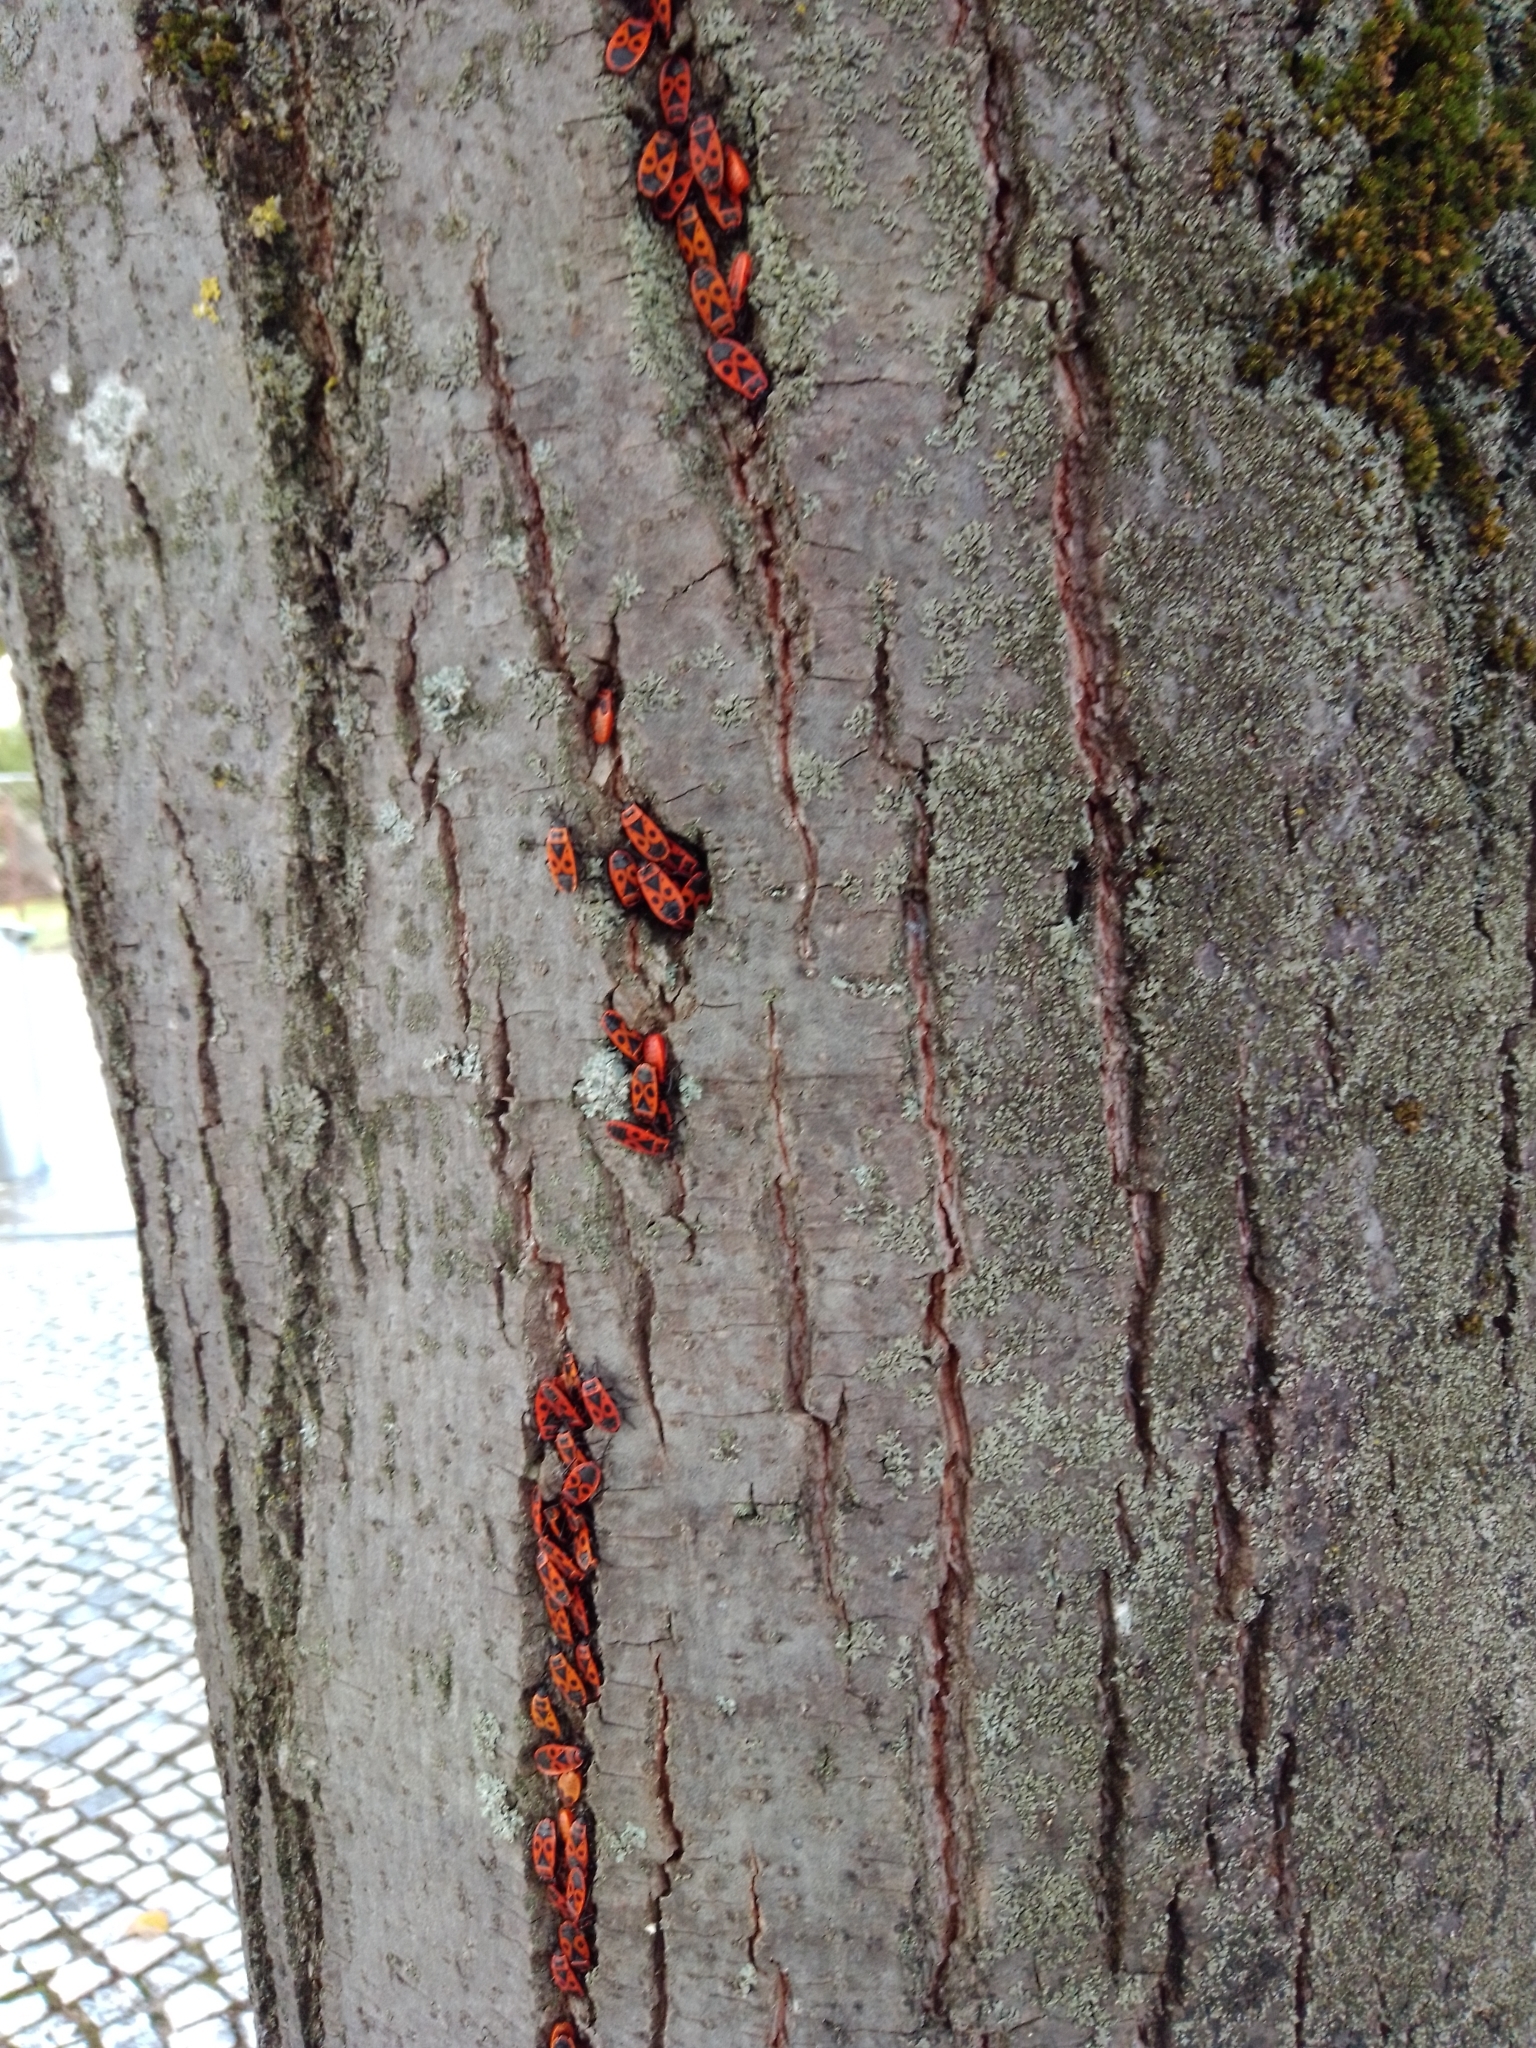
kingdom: Animalia
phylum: Arthropoda
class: Insecta
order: Hemiptera
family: Pyrrhocoridae
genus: Pyrrhocoris
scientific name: Pyrrhocoris apterus
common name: Firebug
